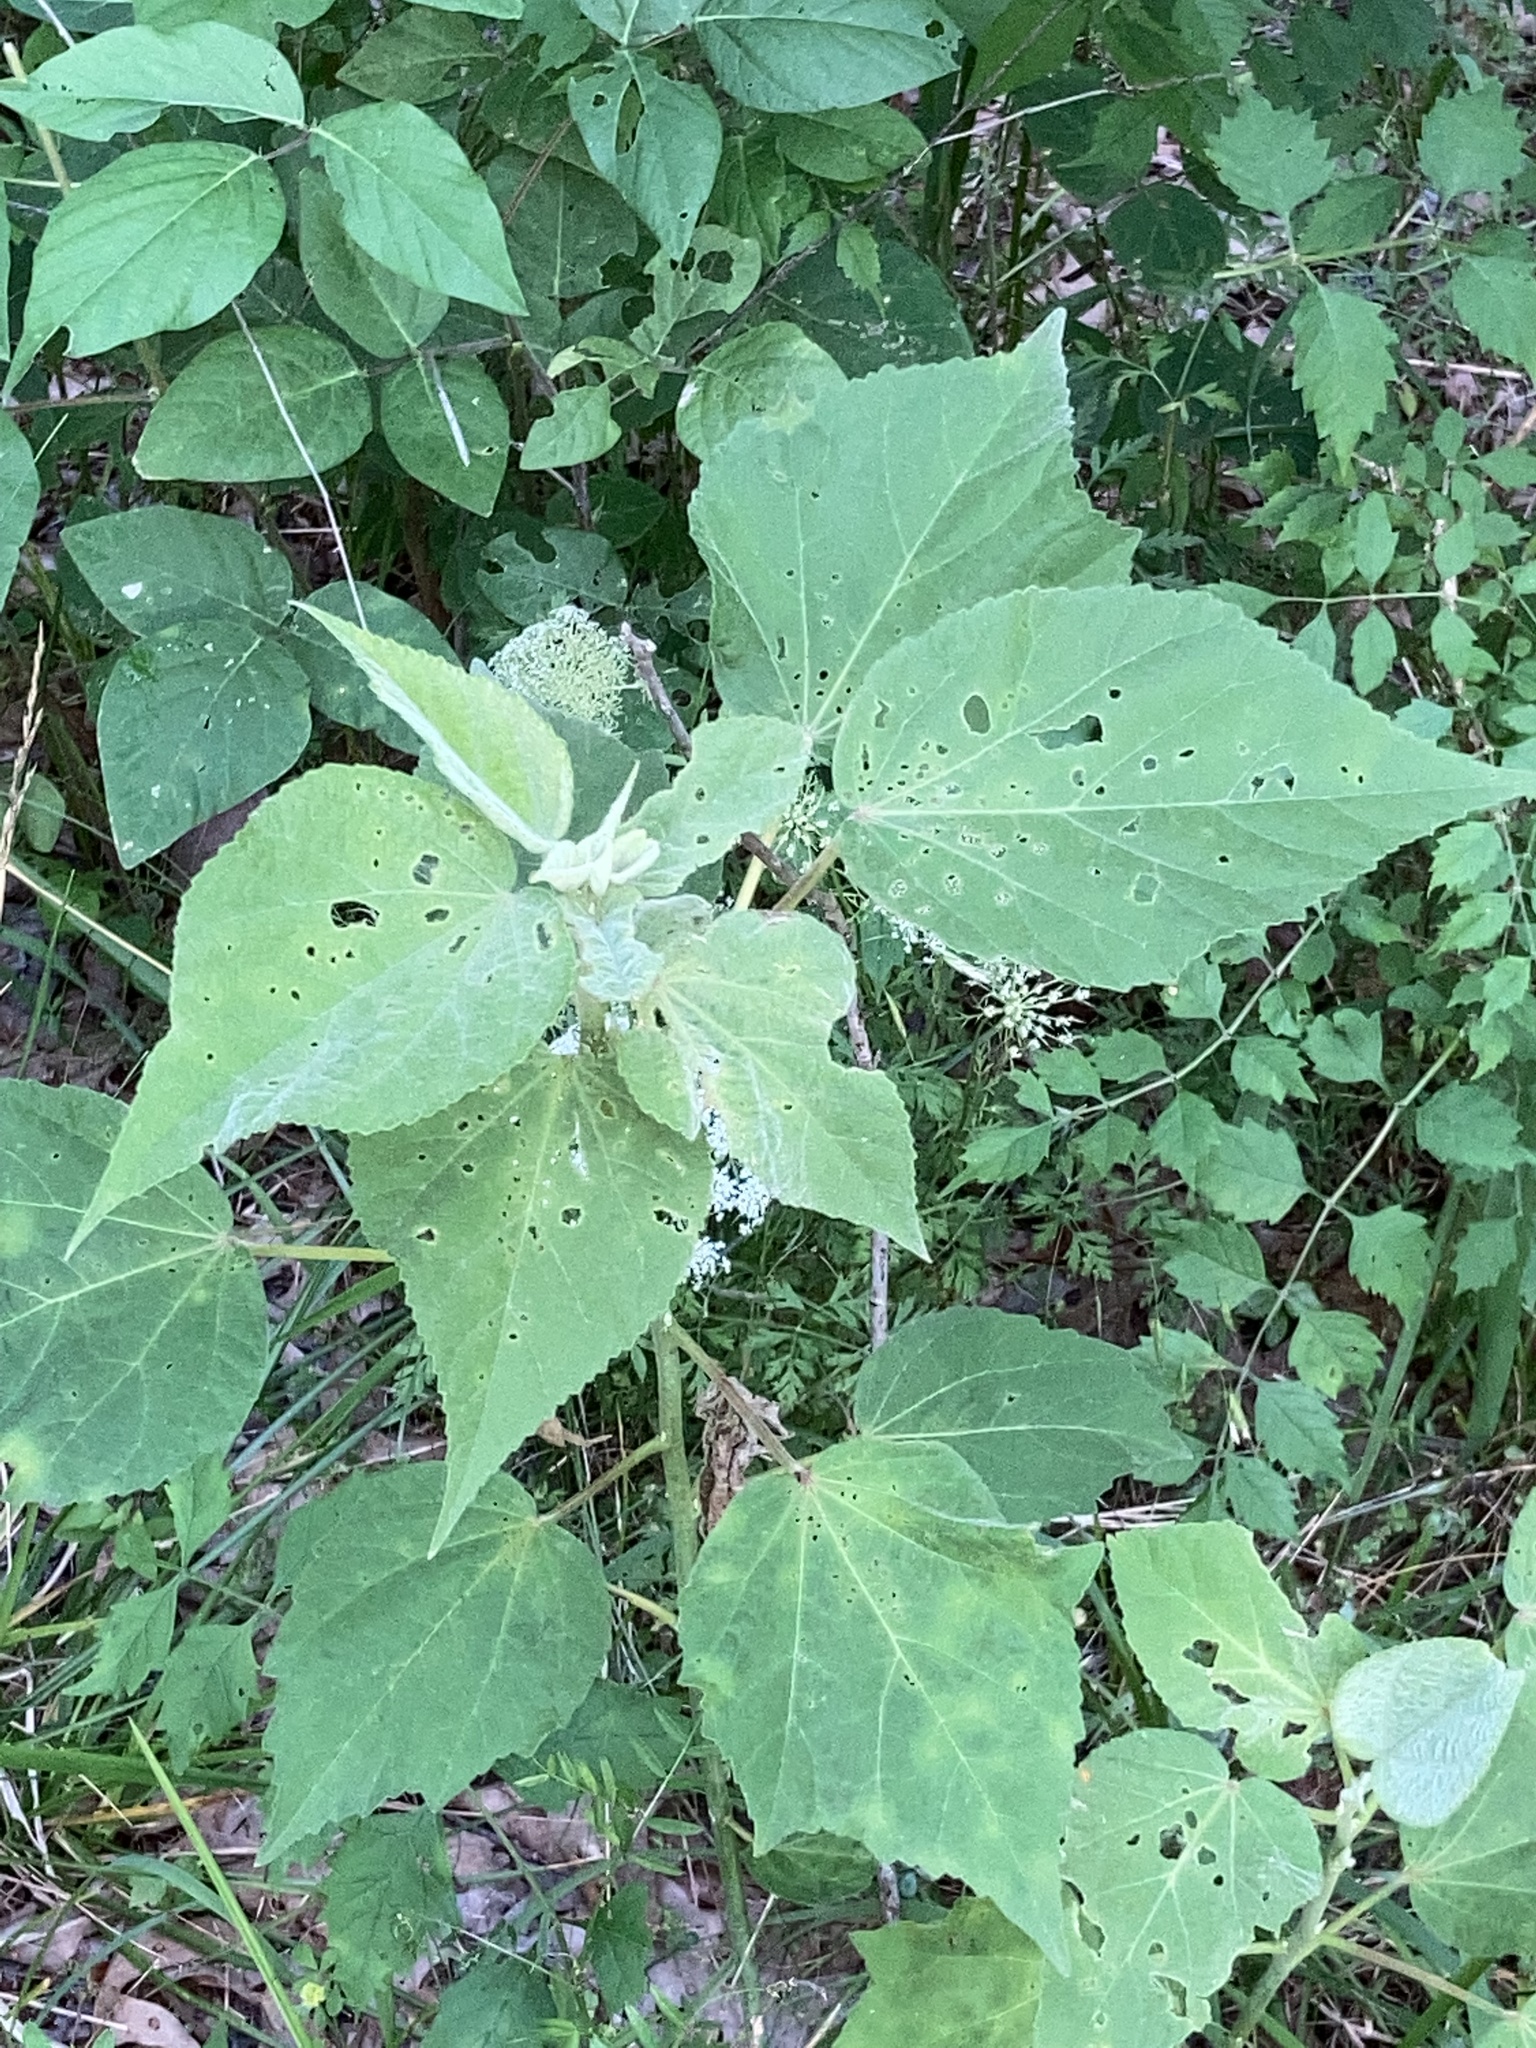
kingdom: Plantae
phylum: Tracheophyta
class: Magnoliopsida
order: Malvales
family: Malvaceae
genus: Hibiscus
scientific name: Hibiscus moscheutos
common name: Common rose-mallow
